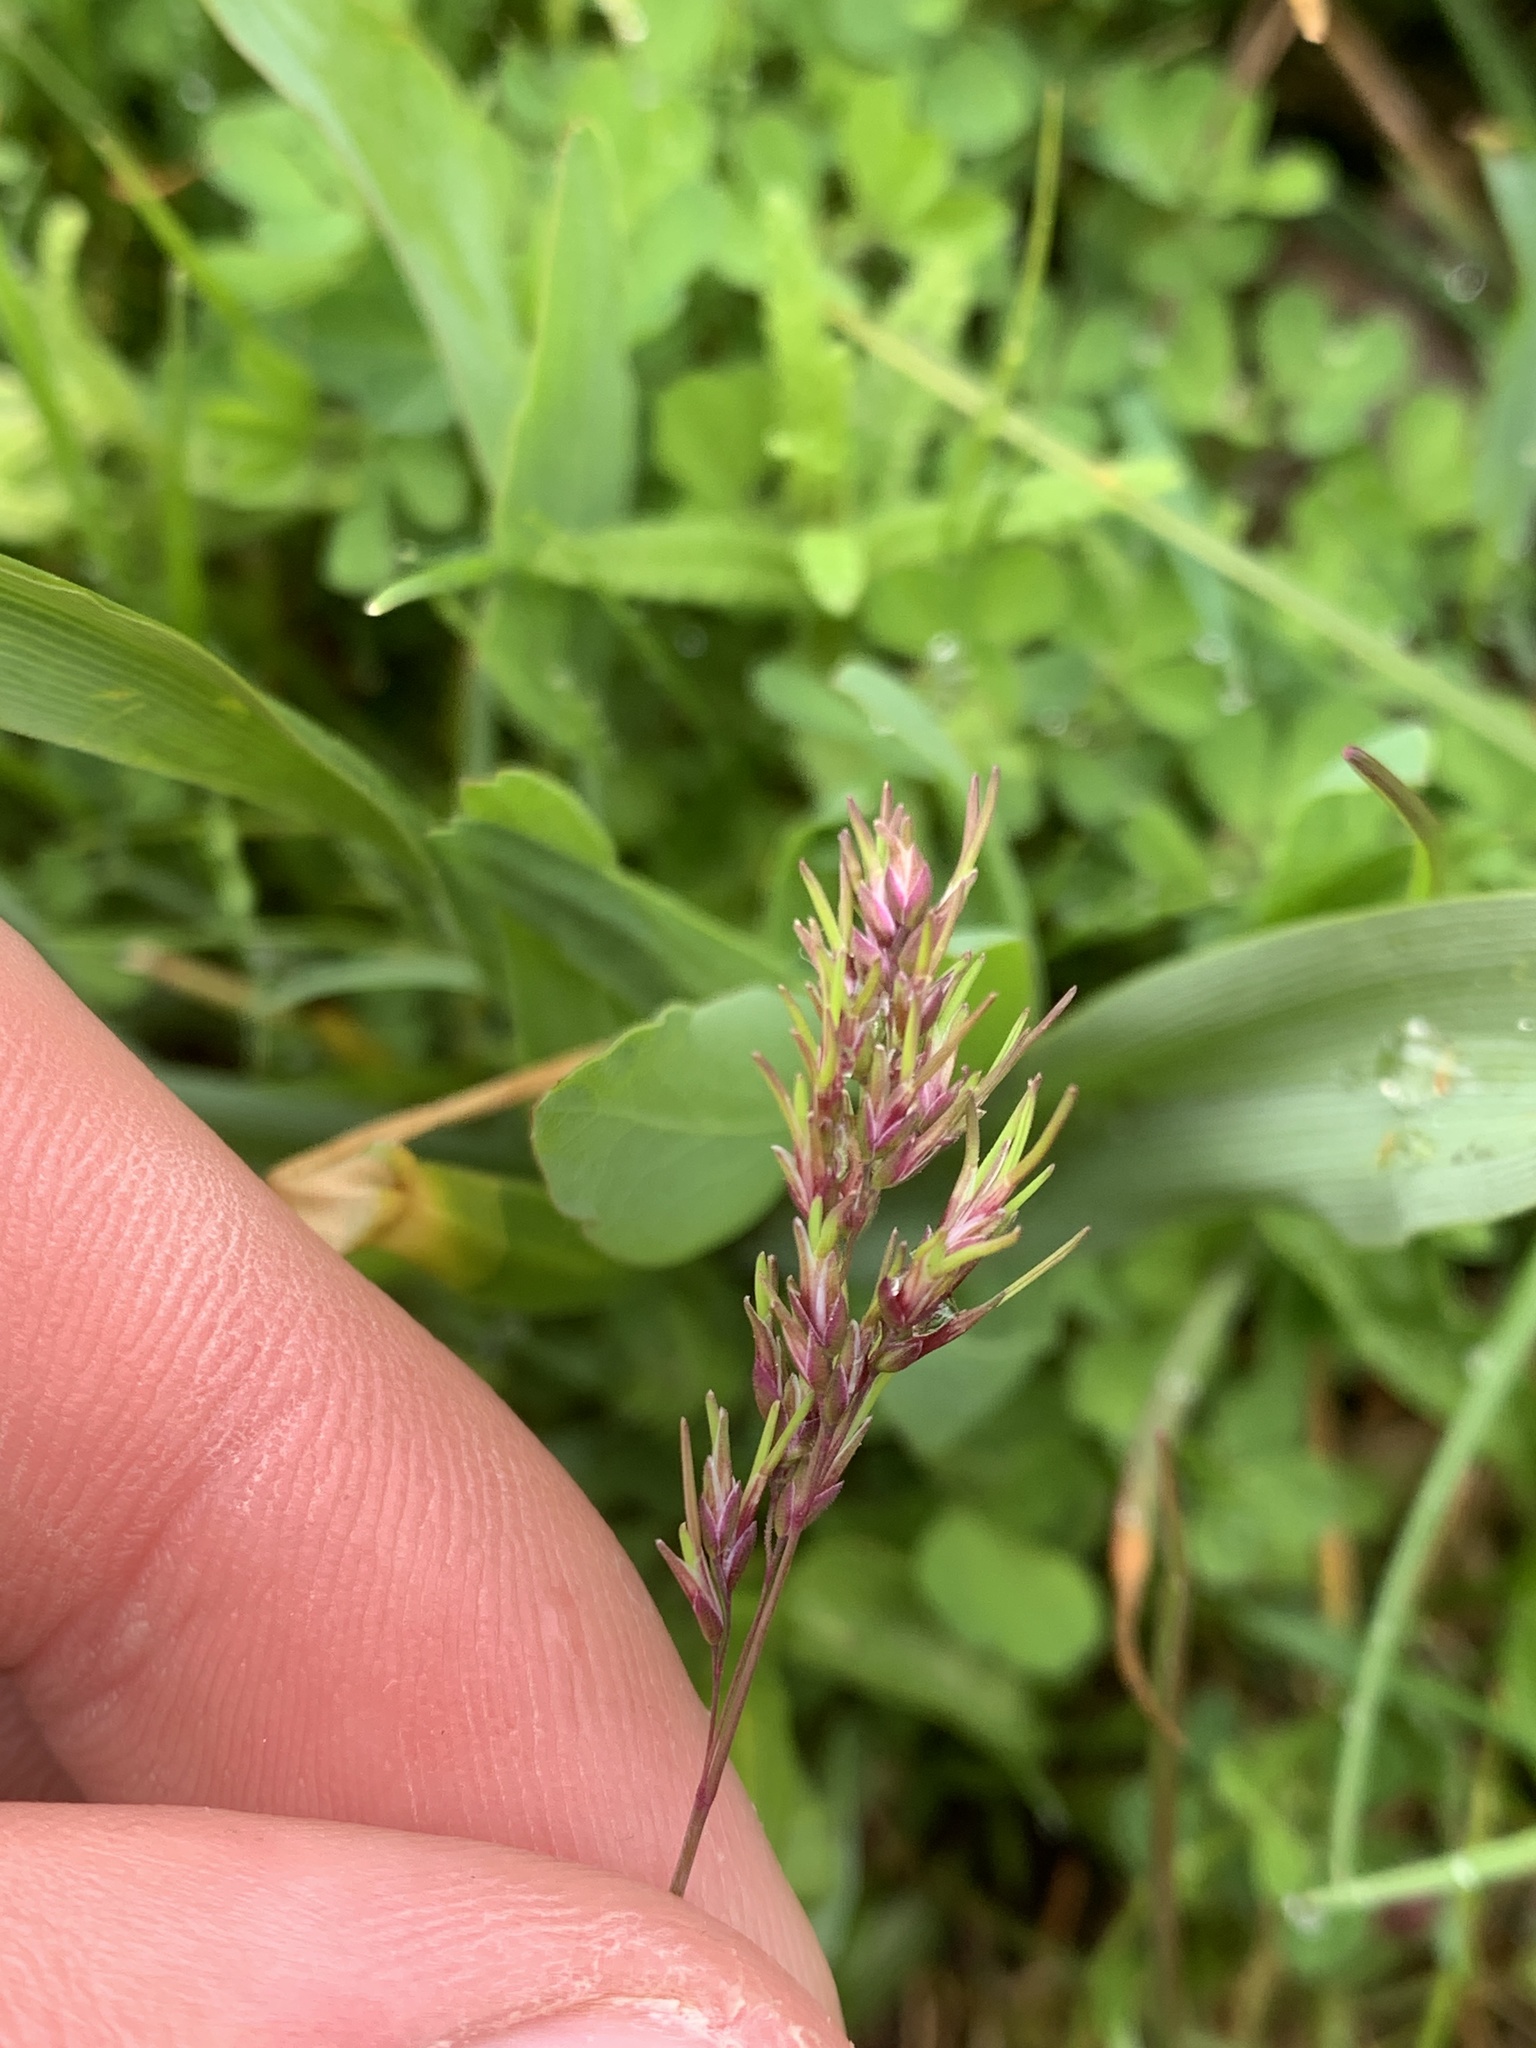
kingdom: Plantae
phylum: Tracheophyta
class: Liliopsida
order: Poales
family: Poaceae
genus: Poa
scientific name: Poa bulbosa
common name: Bulbous bluegrass
